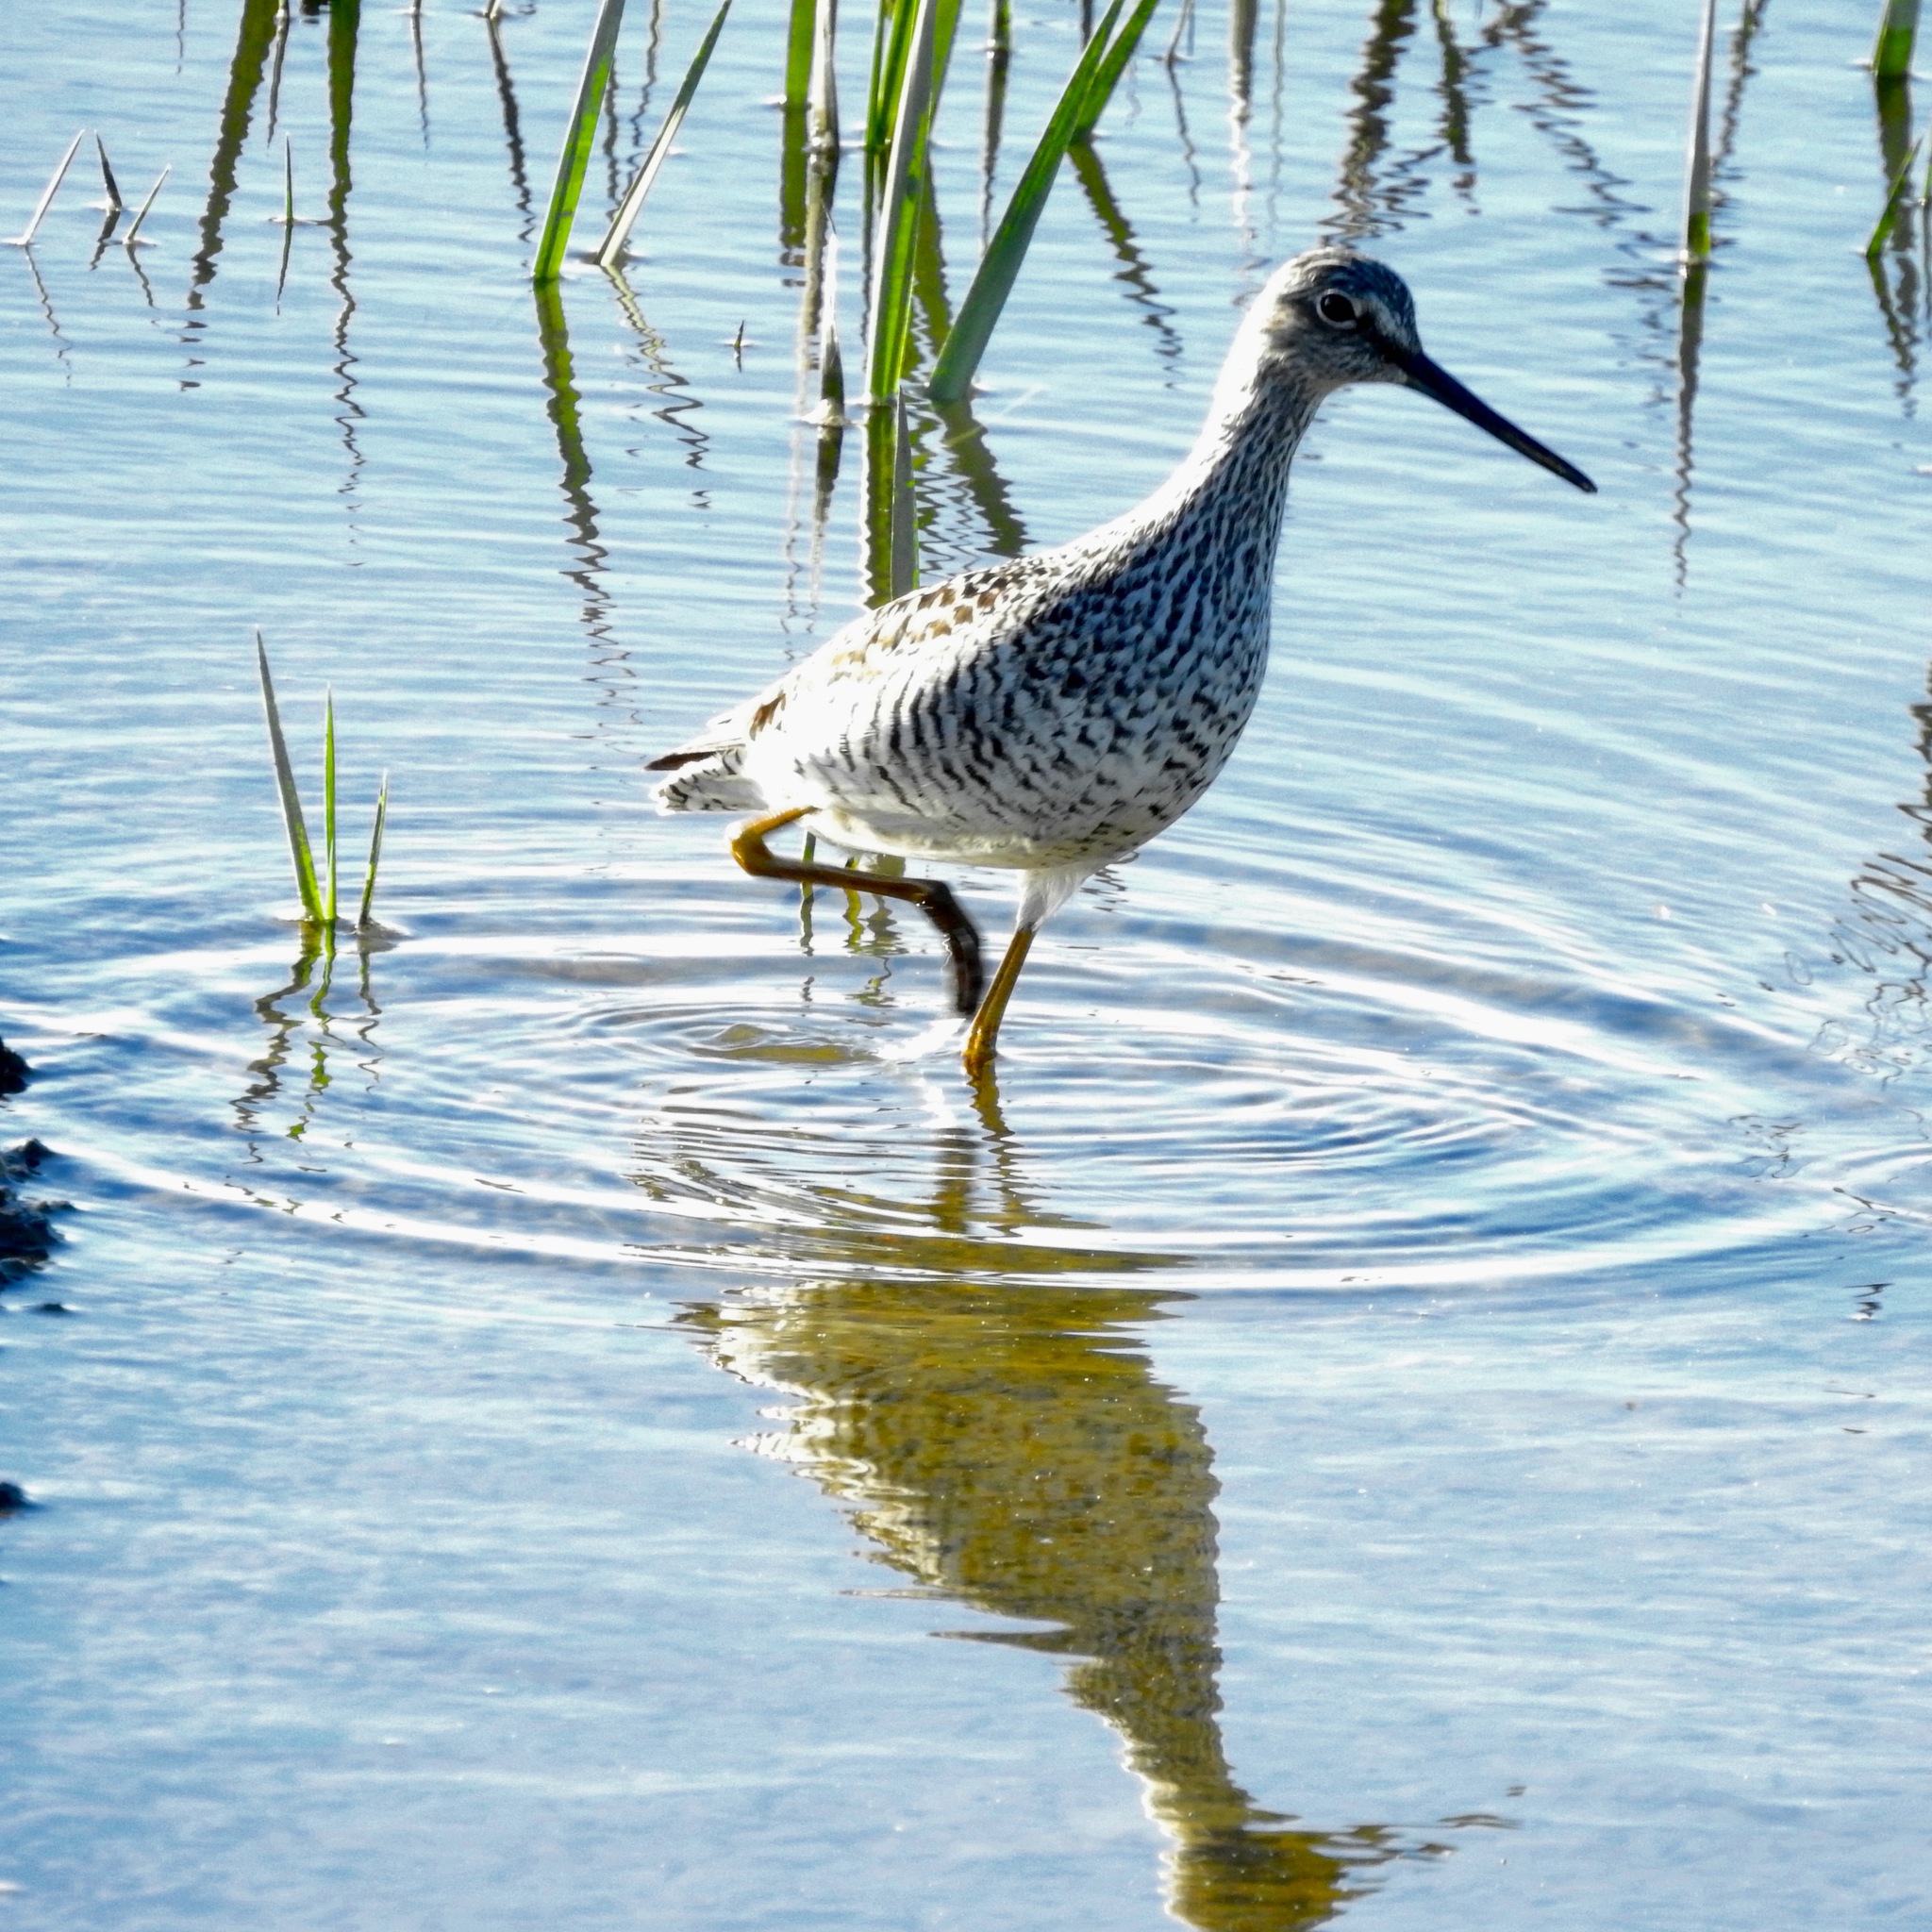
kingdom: Animalia
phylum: Chordata
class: Aves
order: Charadriiformes
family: Scolopacidae
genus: Tringa
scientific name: Tringa melanoleuca
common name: Greater yellowlegs
